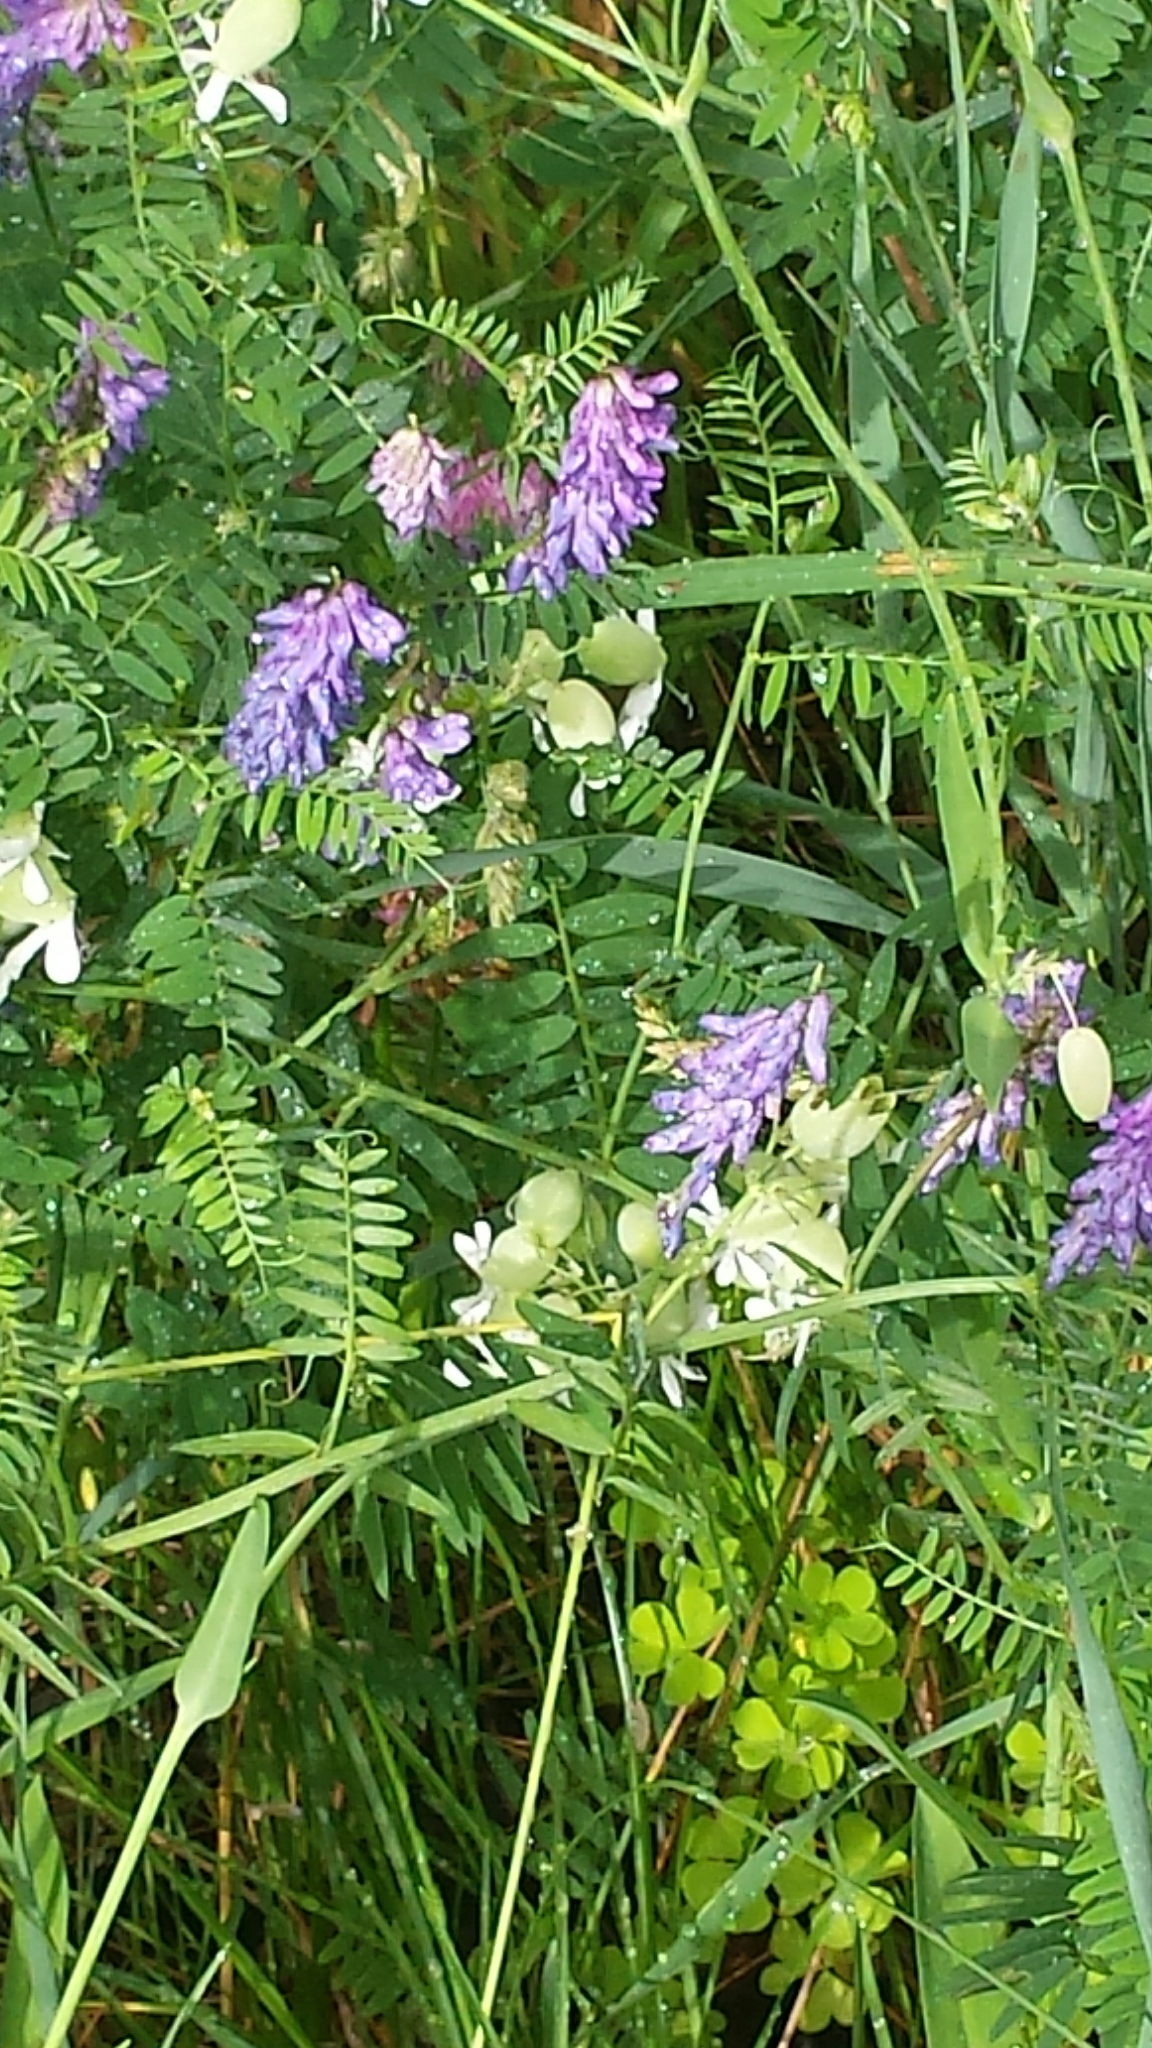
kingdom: Plantae
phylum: Tracheophyta
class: Magnoliopsida
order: Fabales
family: Fabaceae
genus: Vicia
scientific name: Vicia cracca
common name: Bird vetch
